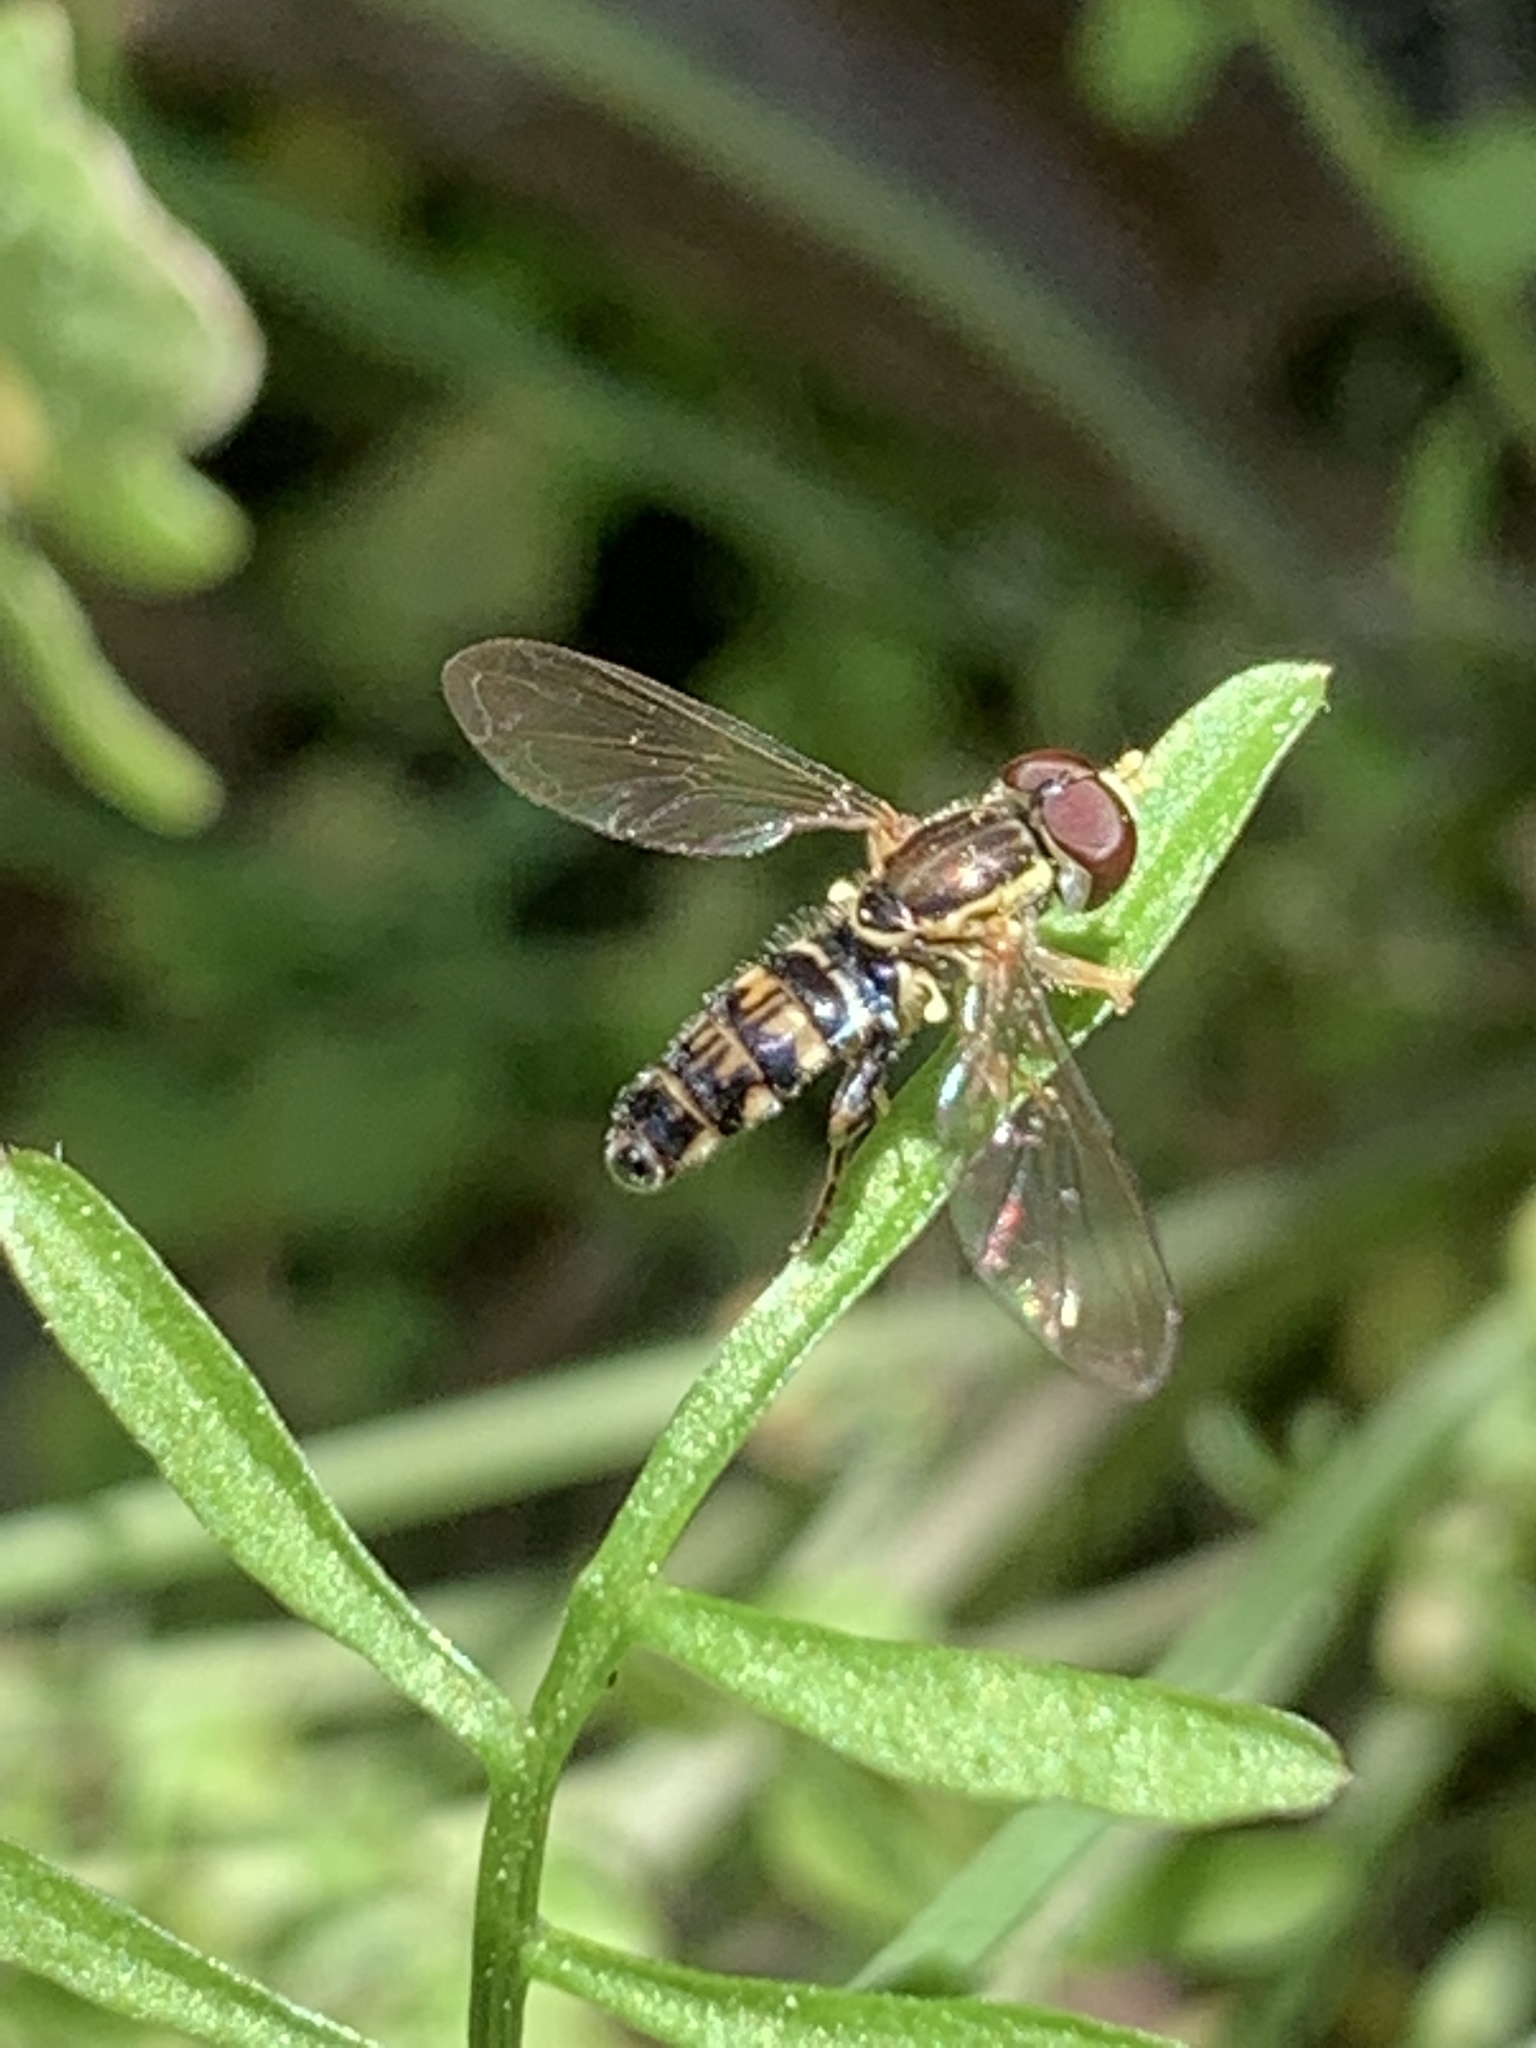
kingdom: Animalia
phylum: Arthropoda
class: Insecta
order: Diptera
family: Syrphidae
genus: Toxomerus
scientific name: Toxomerus geminatus
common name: Eastern calligrapher
